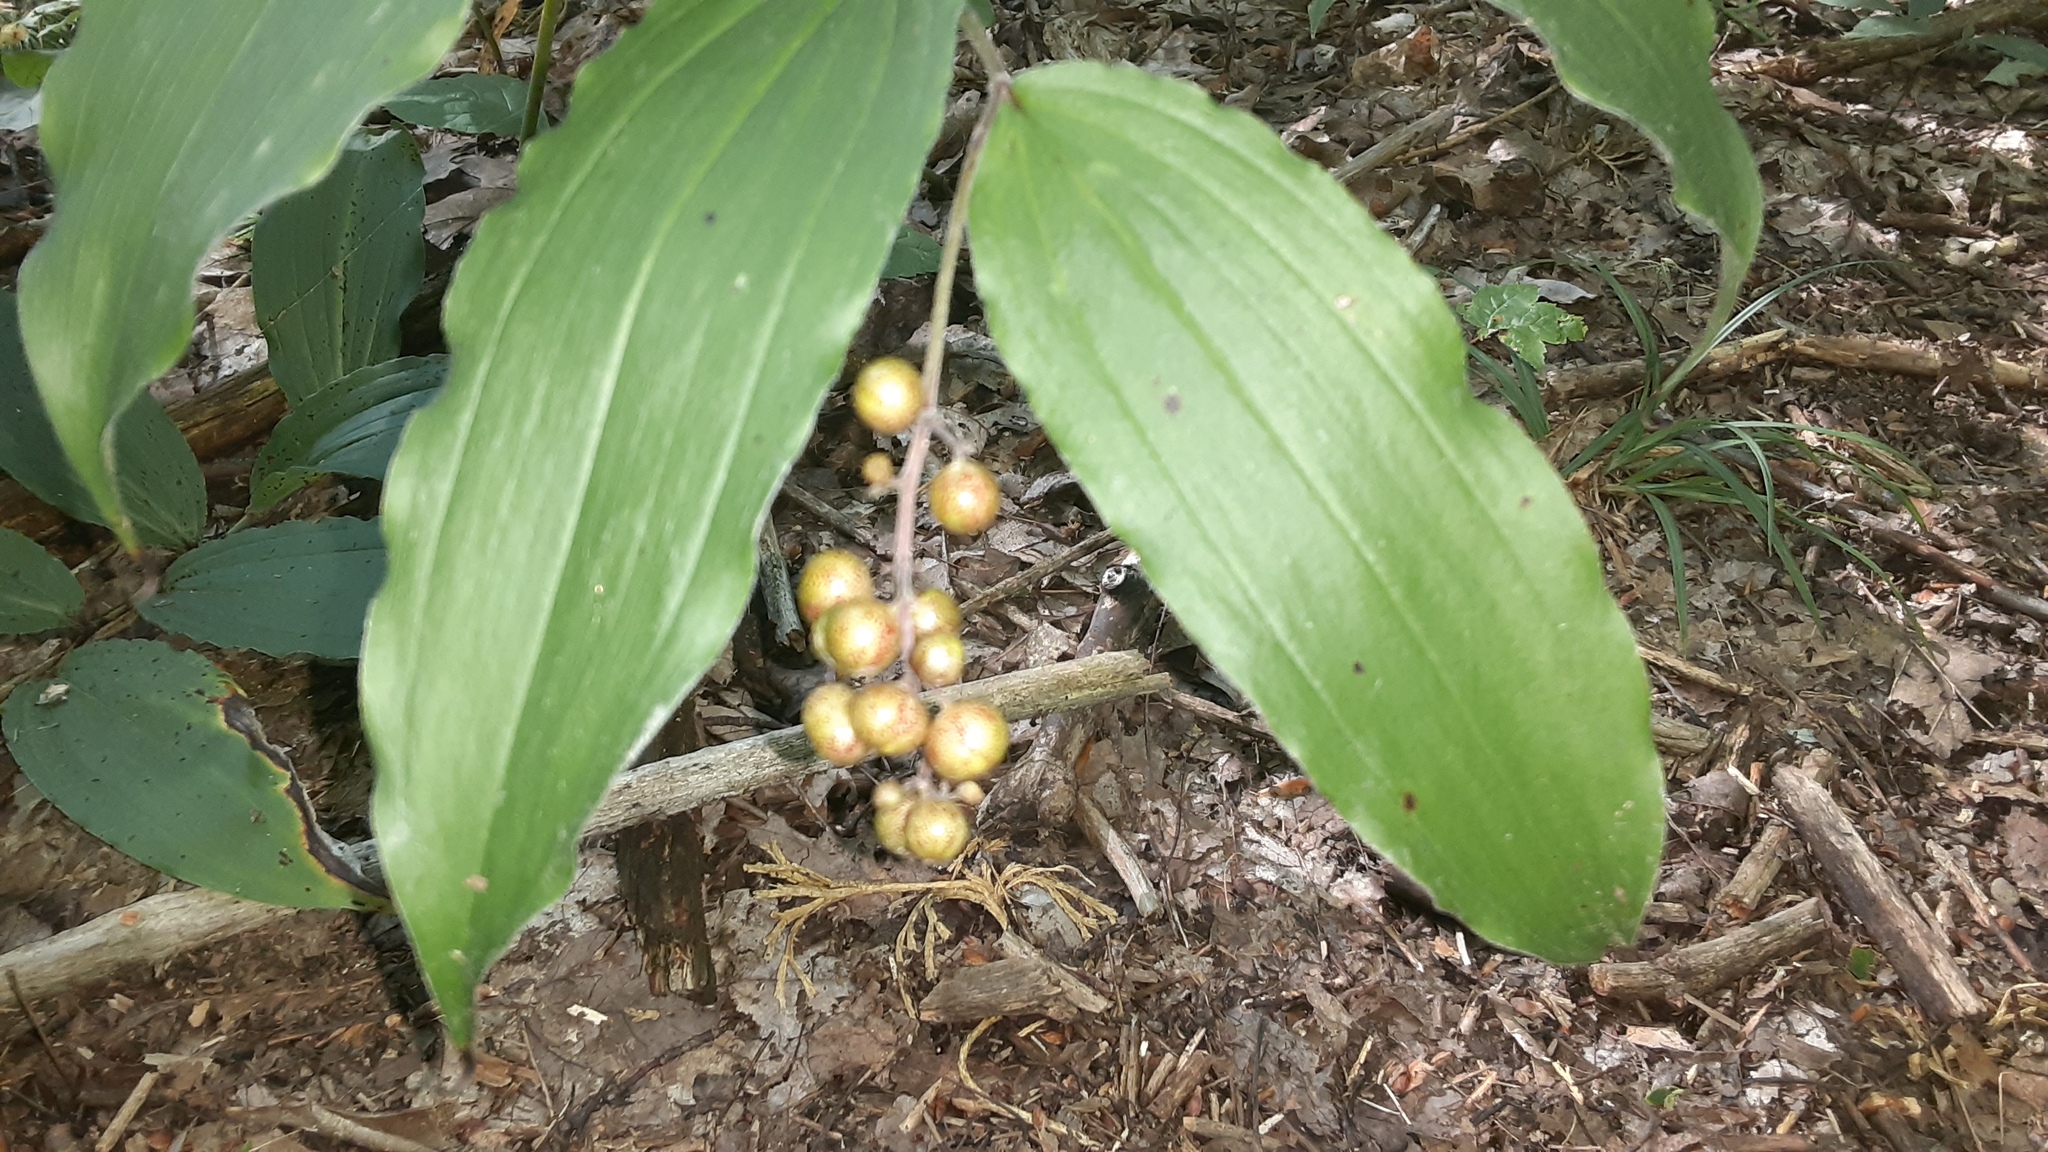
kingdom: Plantae
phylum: Tracheophyta
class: Liliopsida
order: Asparagales
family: Asparagaceae
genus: Maianthemum
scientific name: Maianthemum racemosum
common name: False spikenard
